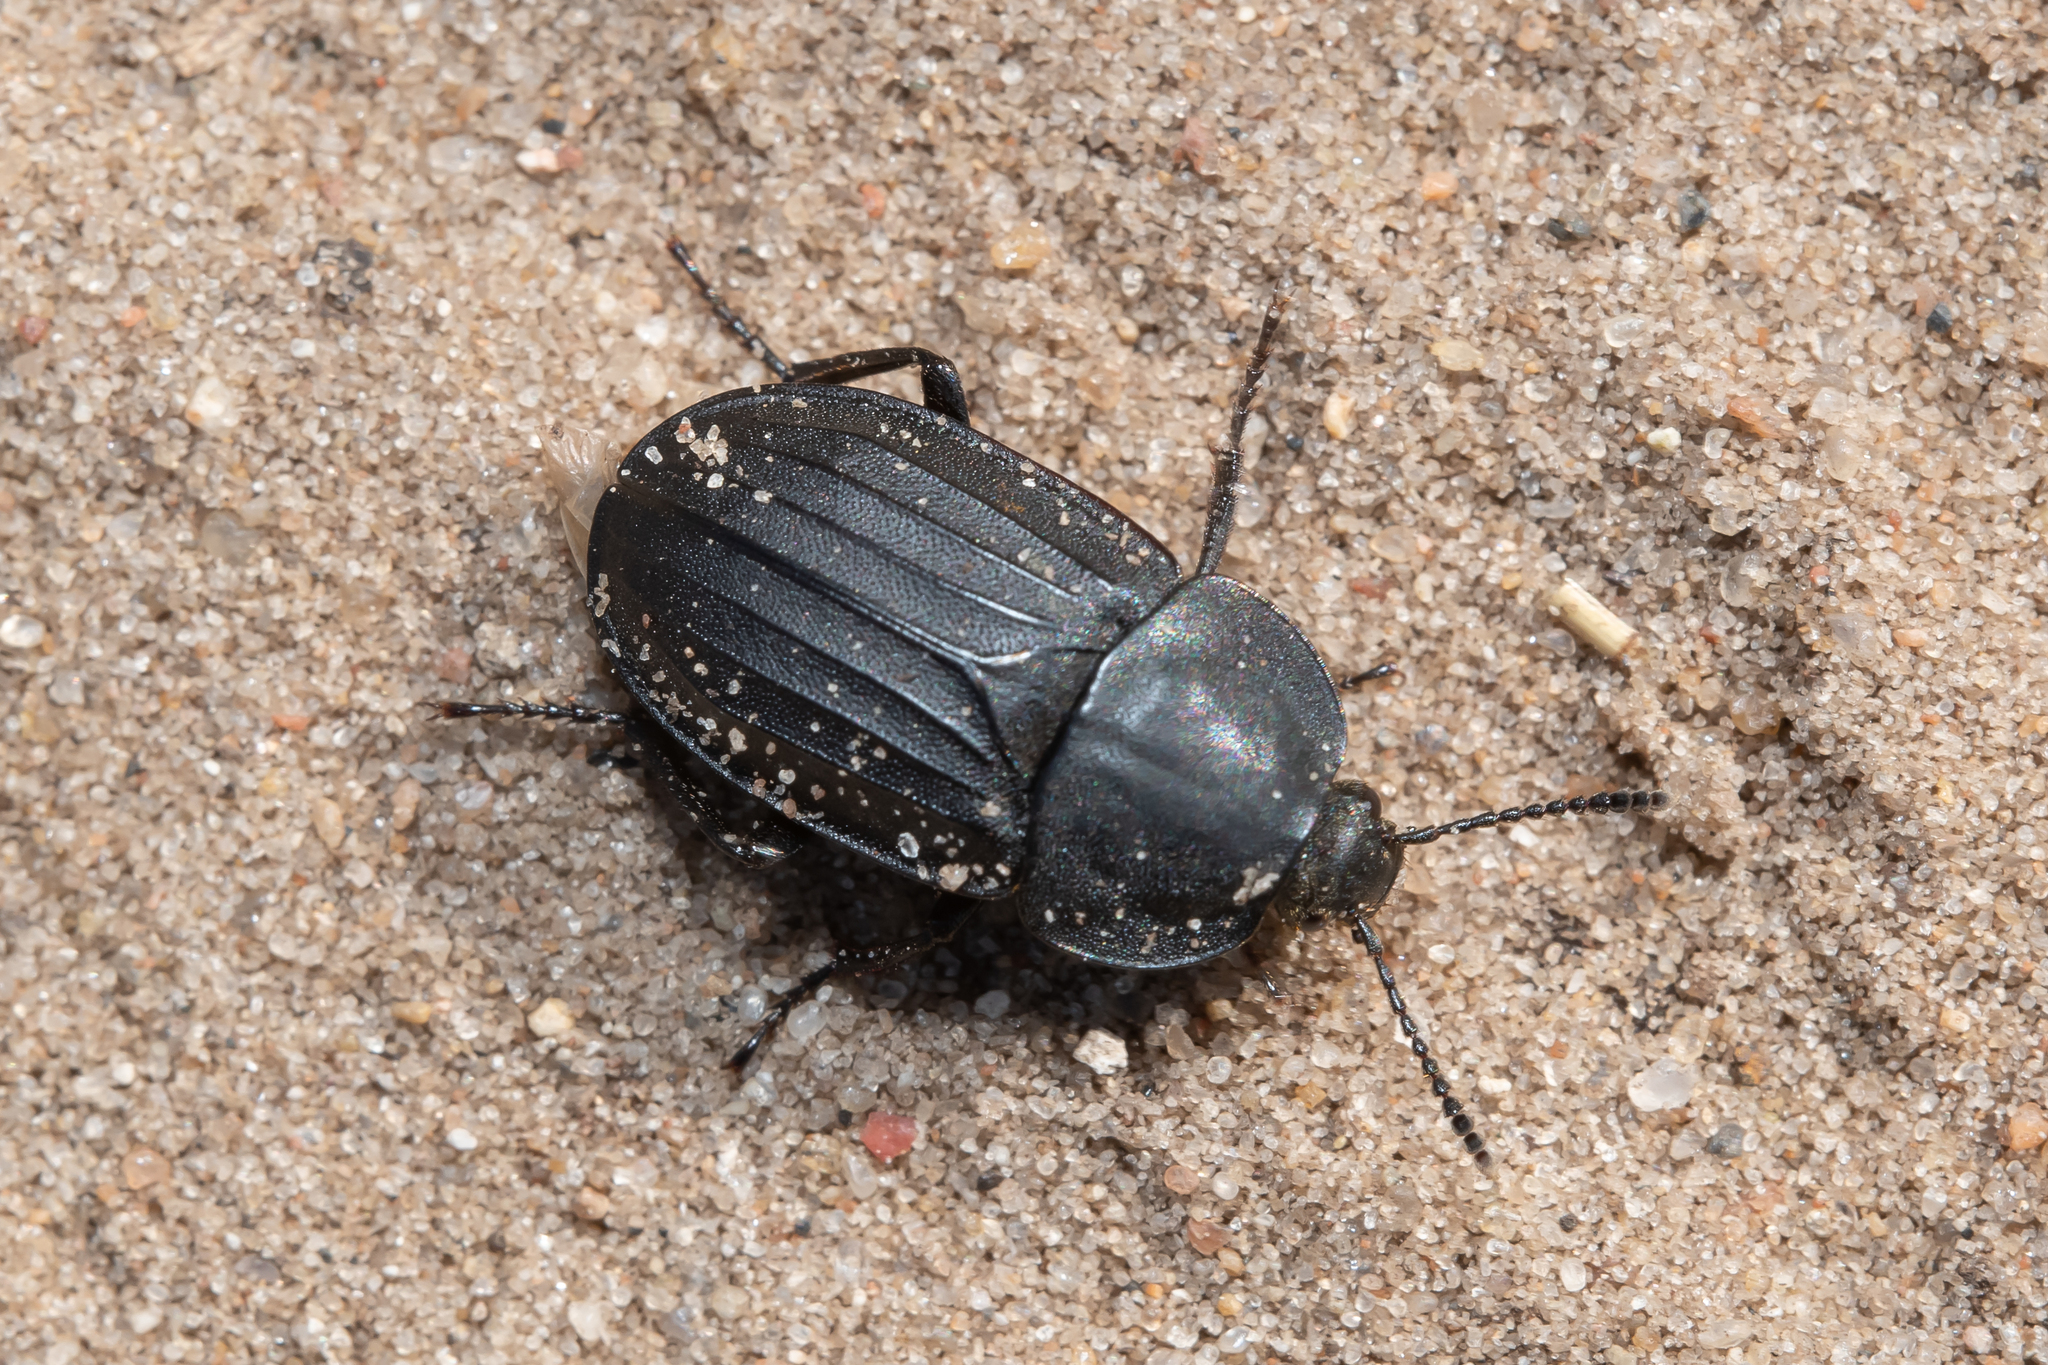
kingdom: Animalia
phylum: Arthropoda
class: Insecta
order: Coleoptera
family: Staphylinidae
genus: Silpha
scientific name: Silpha tristis
